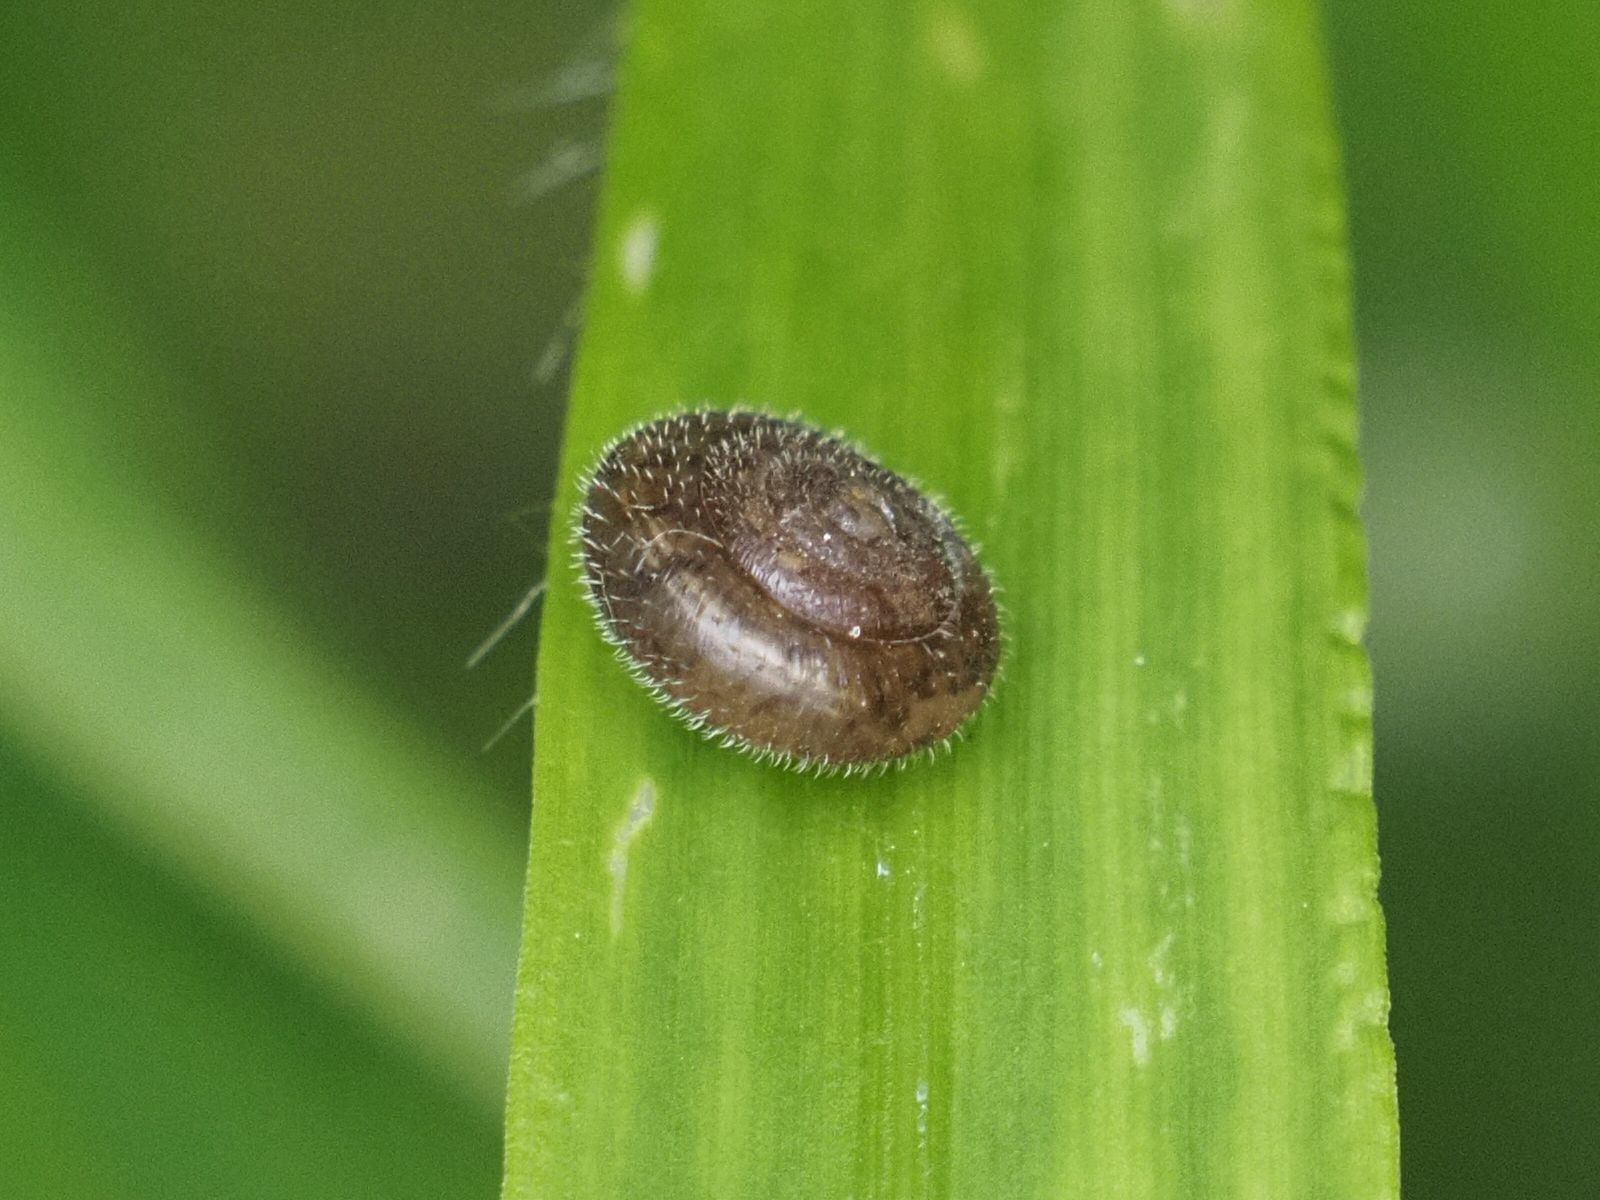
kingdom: Animalia
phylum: Mollusca
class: Gastropoda
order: Stylommatophora
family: Hygromiidae
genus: Trochulus
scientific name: Trochulus hispidus
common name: Hairy snail
